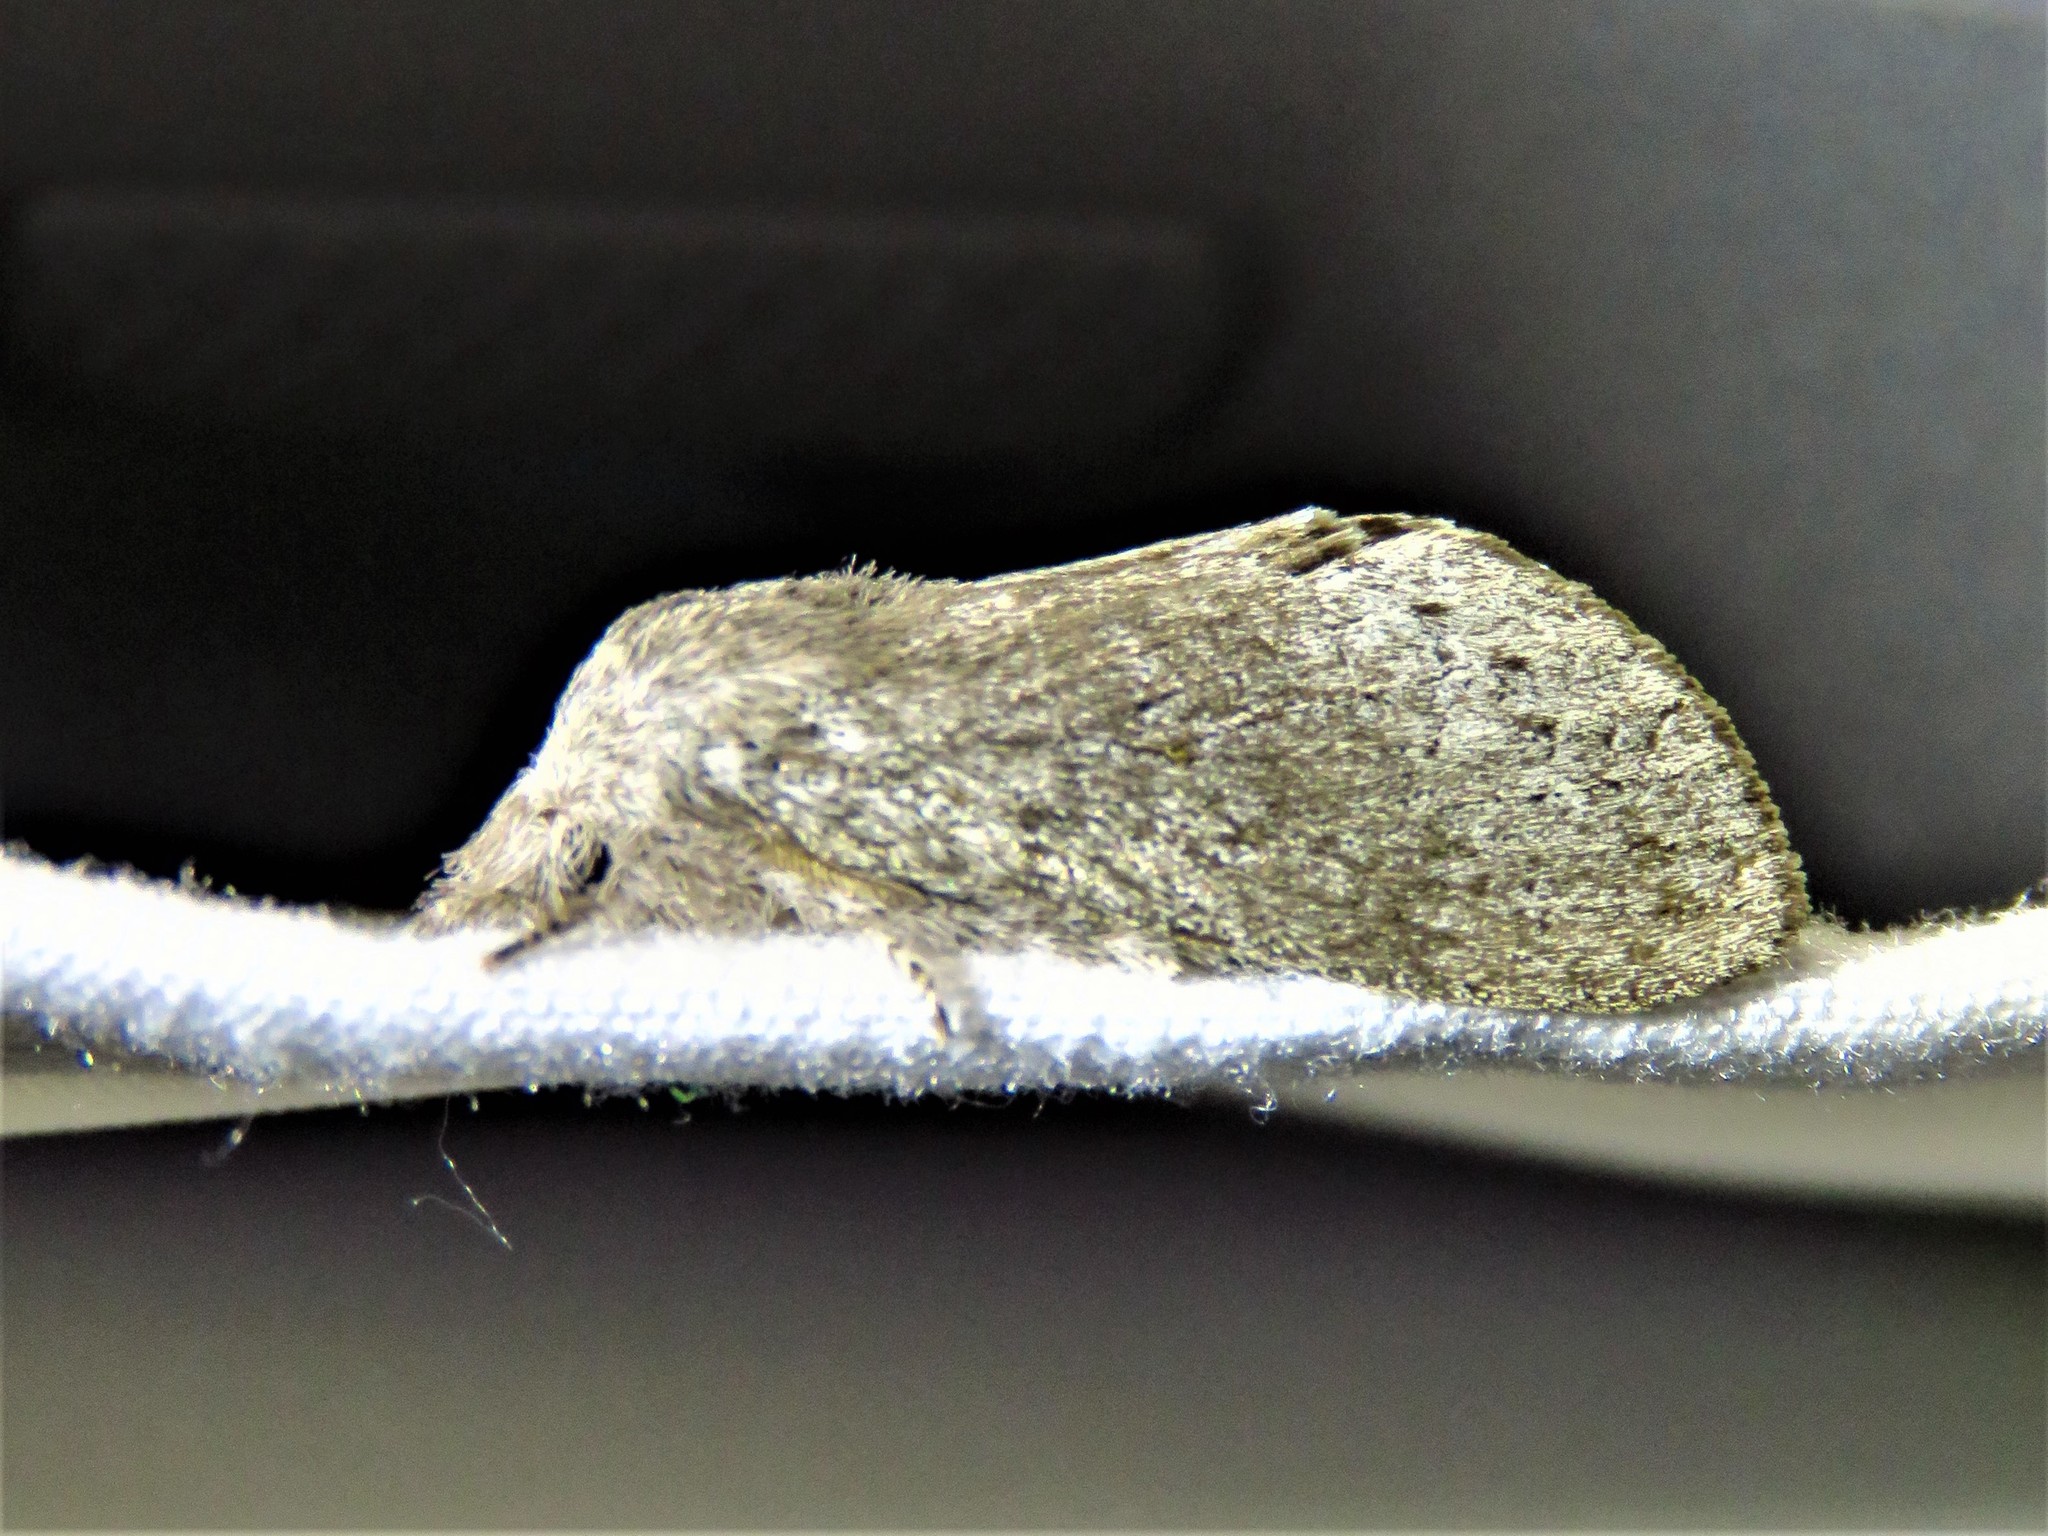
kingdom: Animalia
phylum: Arthropoda
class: Insecta
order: Lepidoptera
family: Lasiocampidae
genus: Heteropacha
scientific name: Heteropacha rileyana
